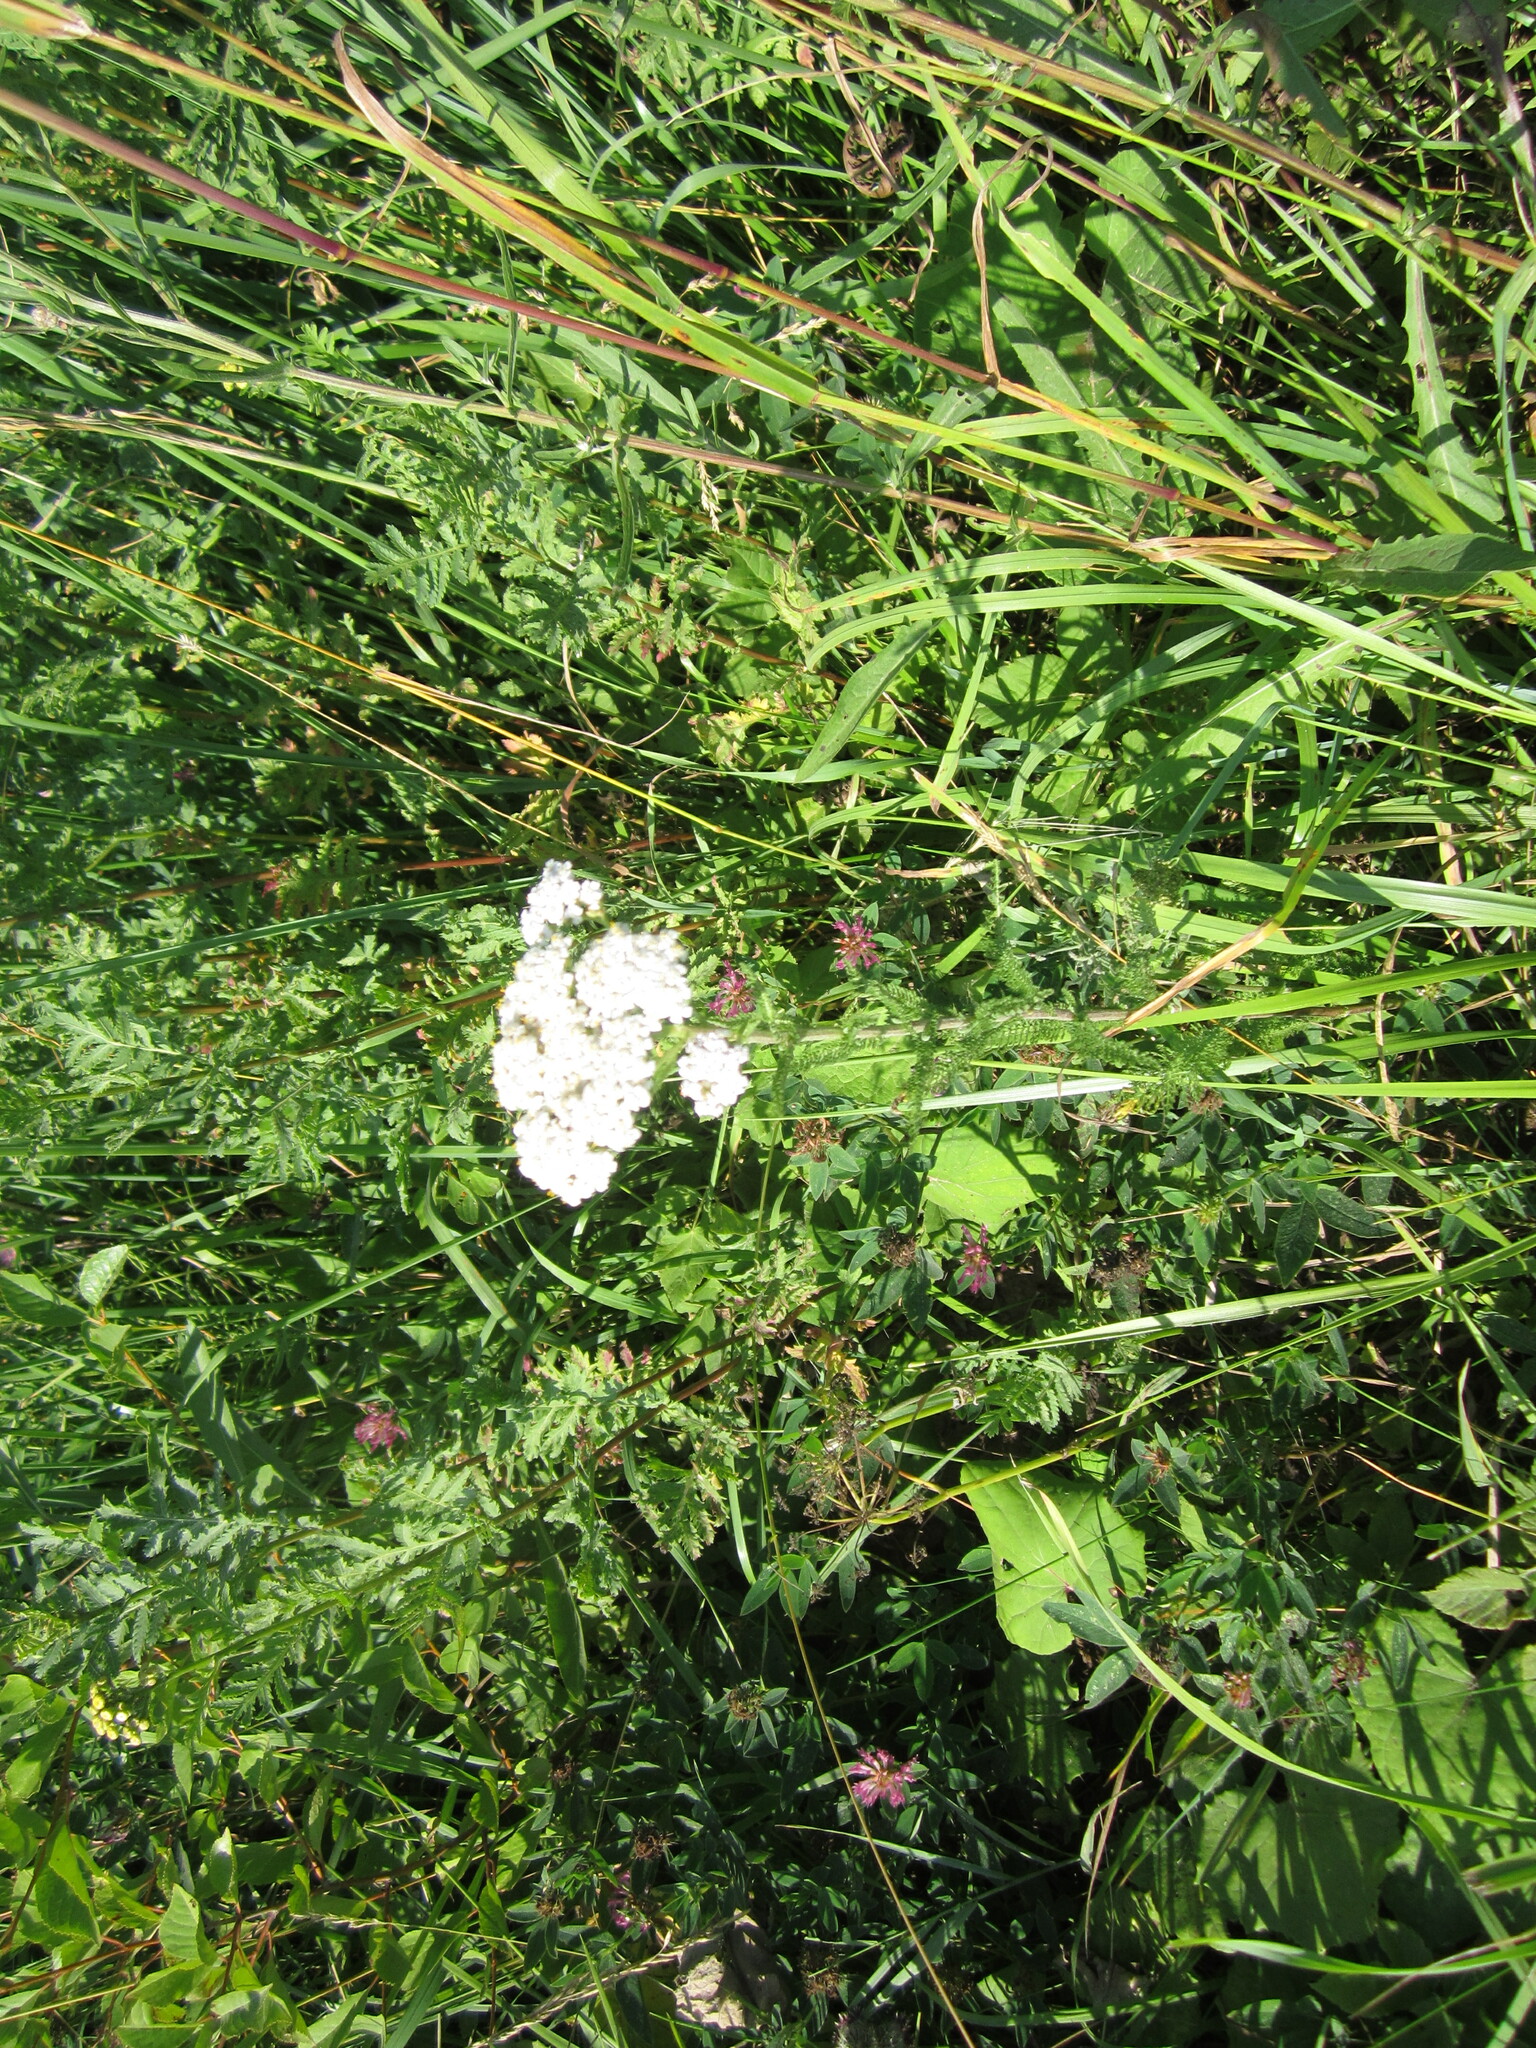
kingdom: Plantae
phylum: Tracheophyta
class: Magnoliopsida
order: Asterales
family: Asteraceae
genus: Achillea
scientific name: Achillea millefolium
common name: Yarrow
